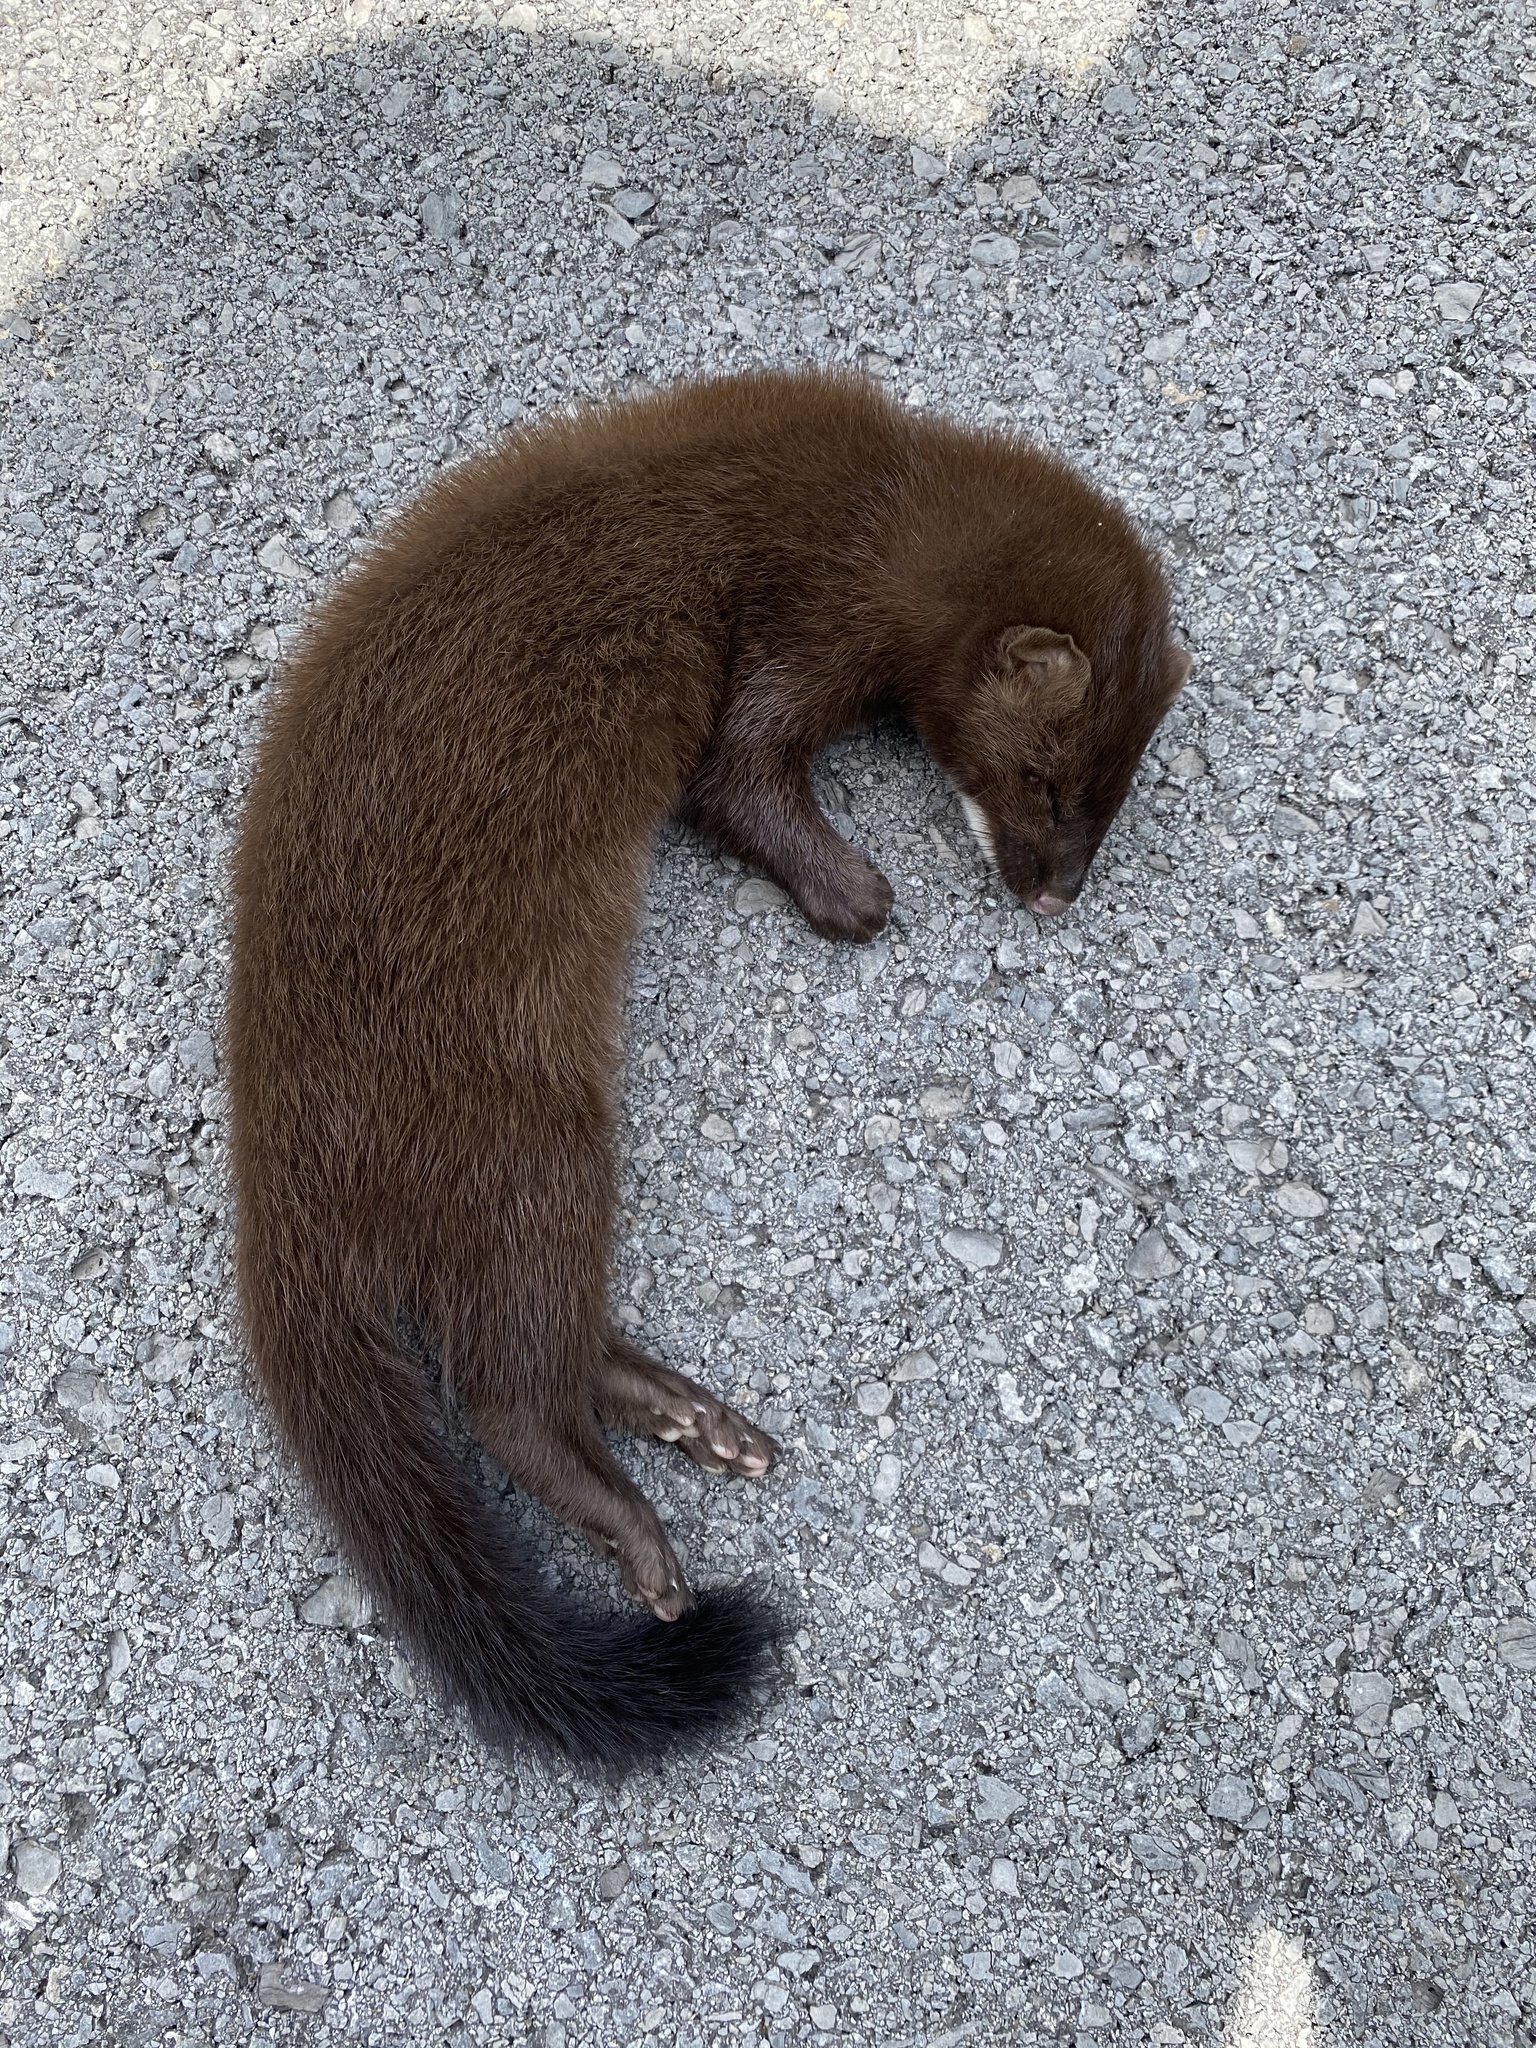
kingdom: Animalia
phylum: Chordata
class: Mammalia
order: Carnivora
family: Mustelidae
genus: Mustela
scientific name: Mustela
